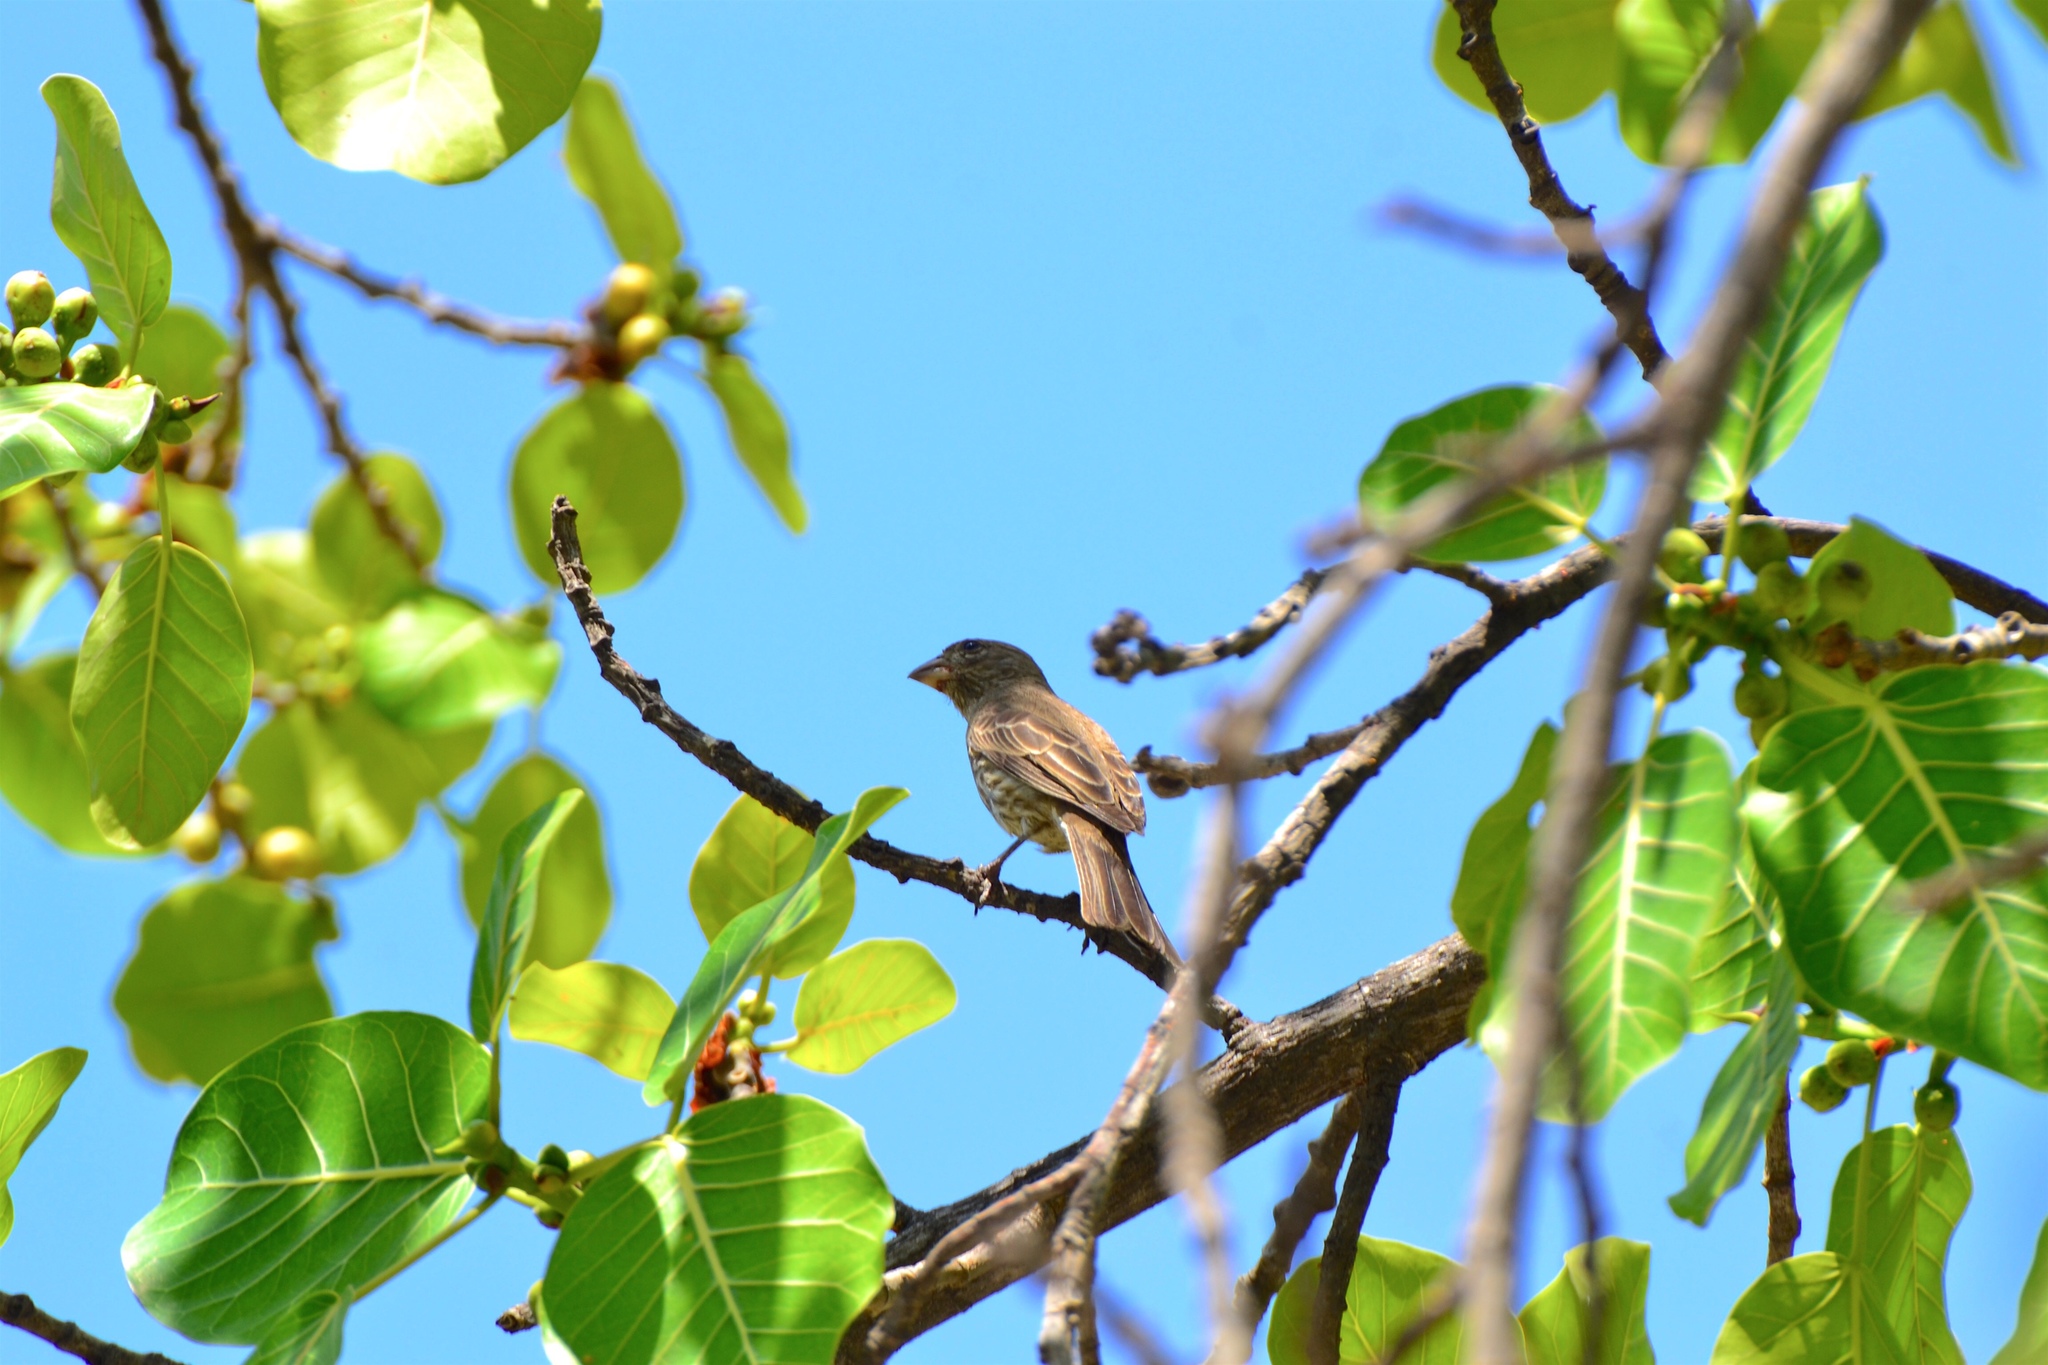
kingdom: Animalia
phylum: Chordata
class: Aves
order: Passeriformes
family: Fringillidae
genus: Haemorhous
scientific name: Haemorhous mexicanus
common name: House finch
